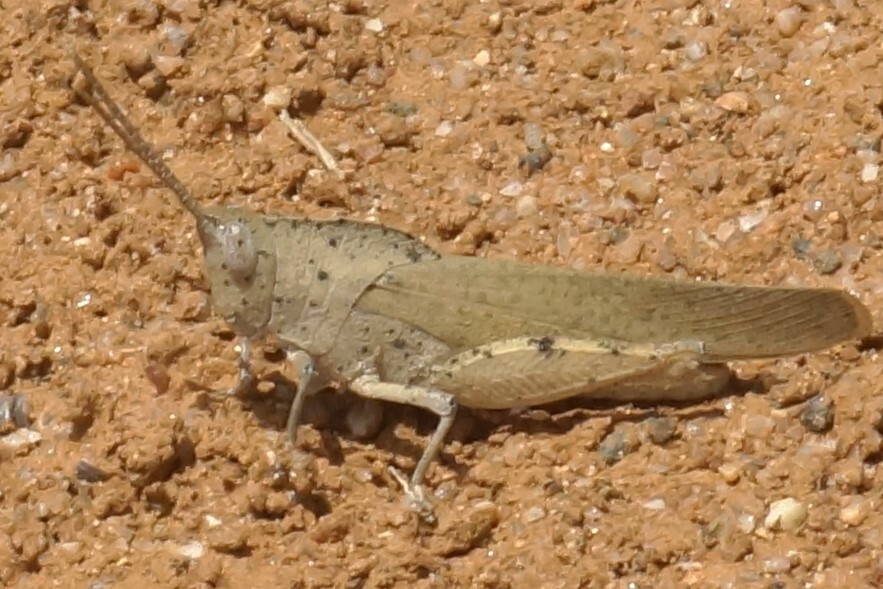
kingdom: Animalia
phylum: Arthropoda
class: Insecta
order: Orthoptera
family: Acrididae
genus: Goniaea
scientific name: Goniaea australasiae
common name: Gumleaf grasshopper
